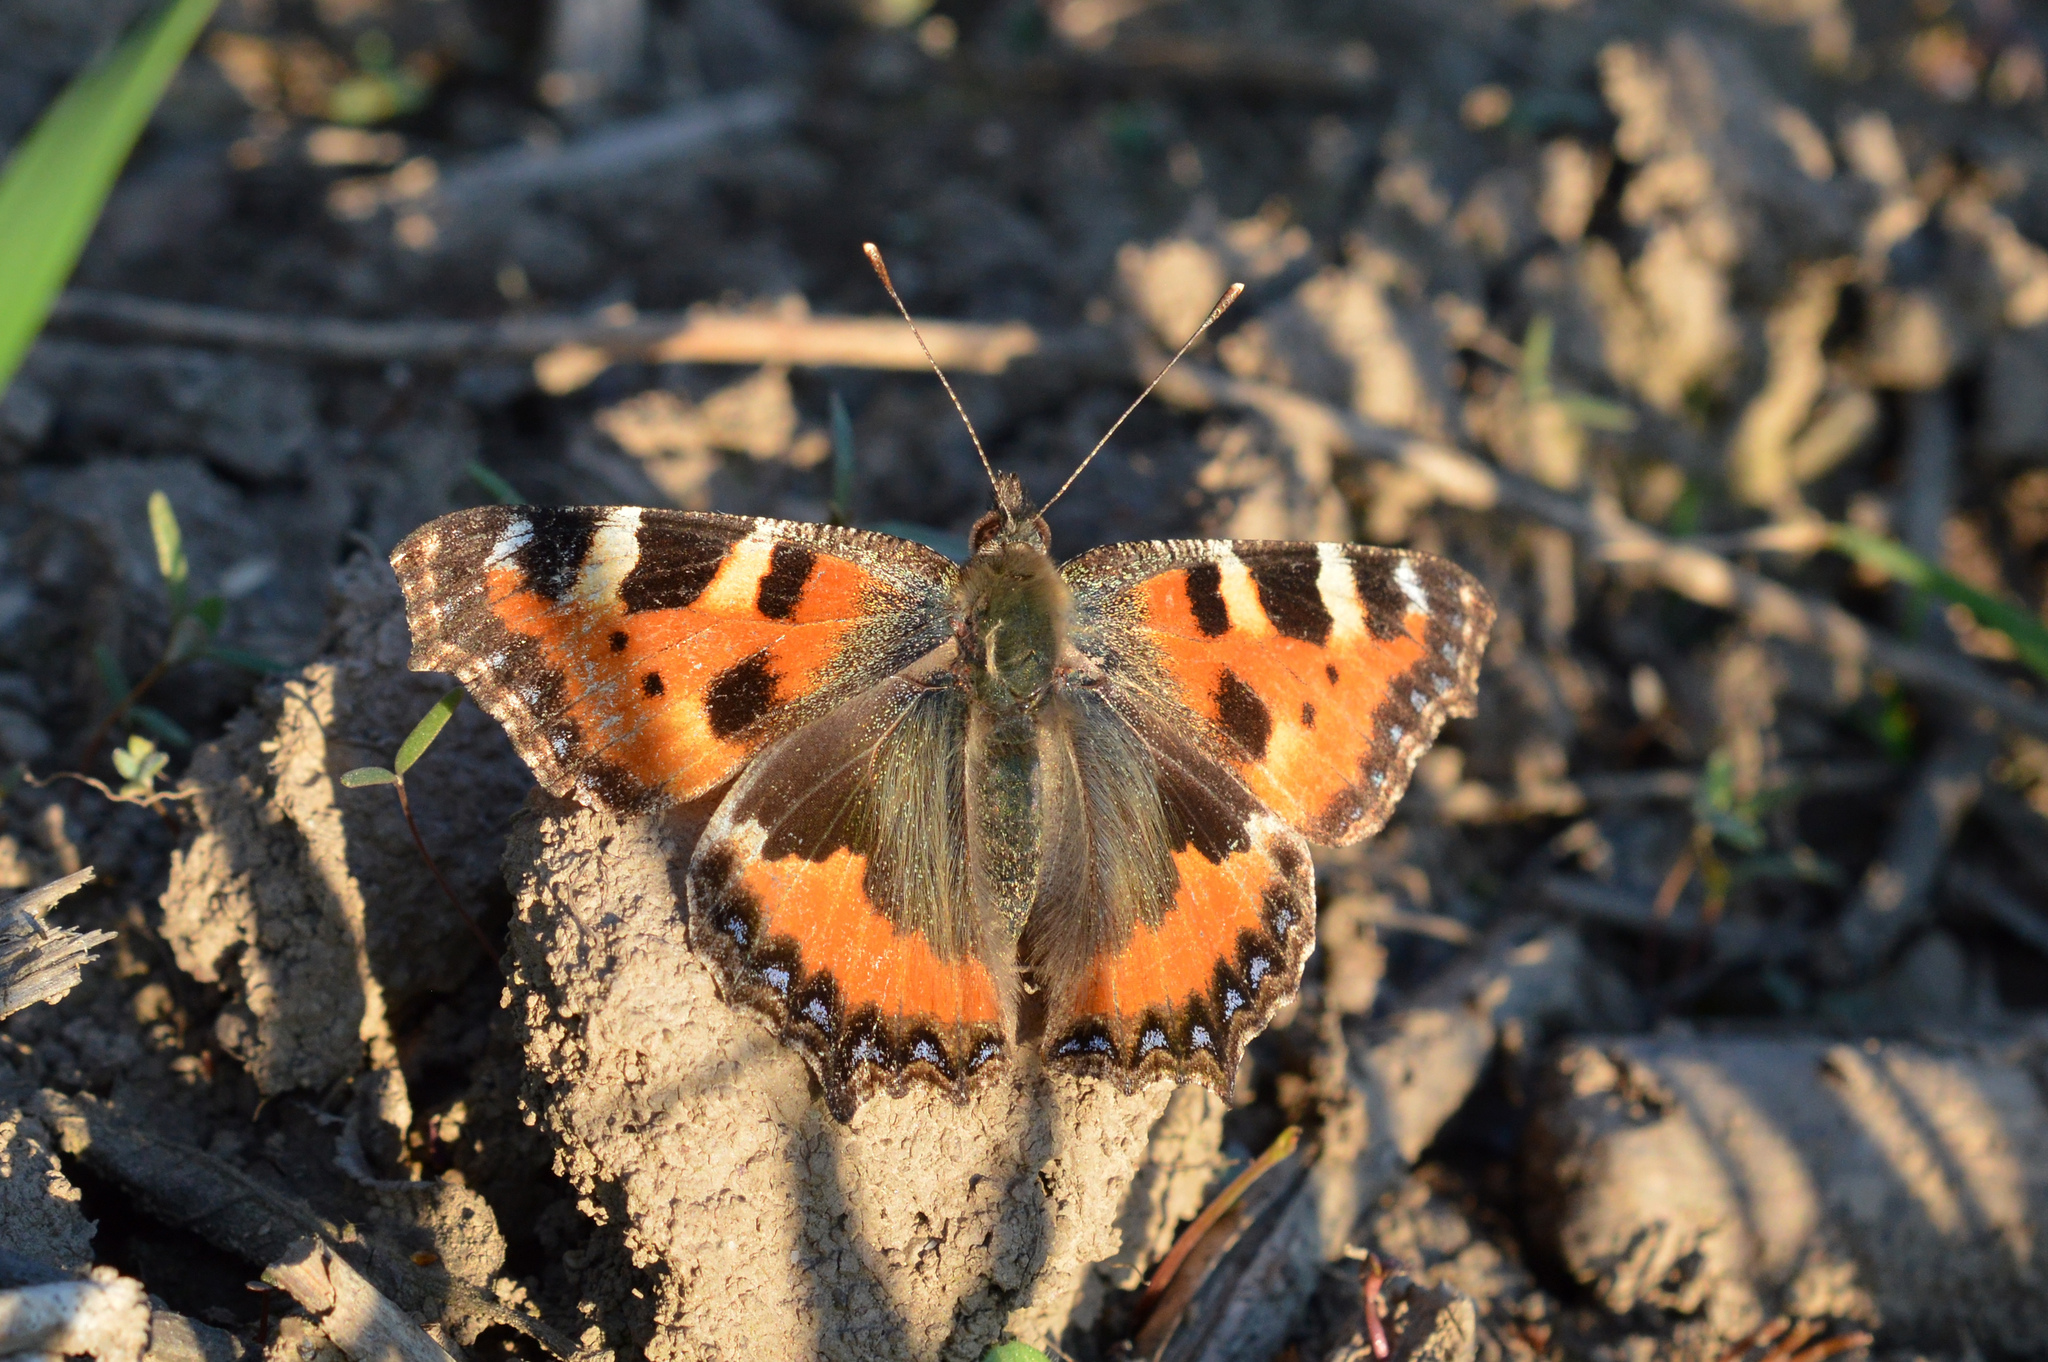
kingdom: Animalia
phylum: Arthropoda
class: Insecta
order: Lepidoptera
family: Nymphalidae
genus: Aglais
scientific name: Aglais urticae
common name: Small tortoiseshell
